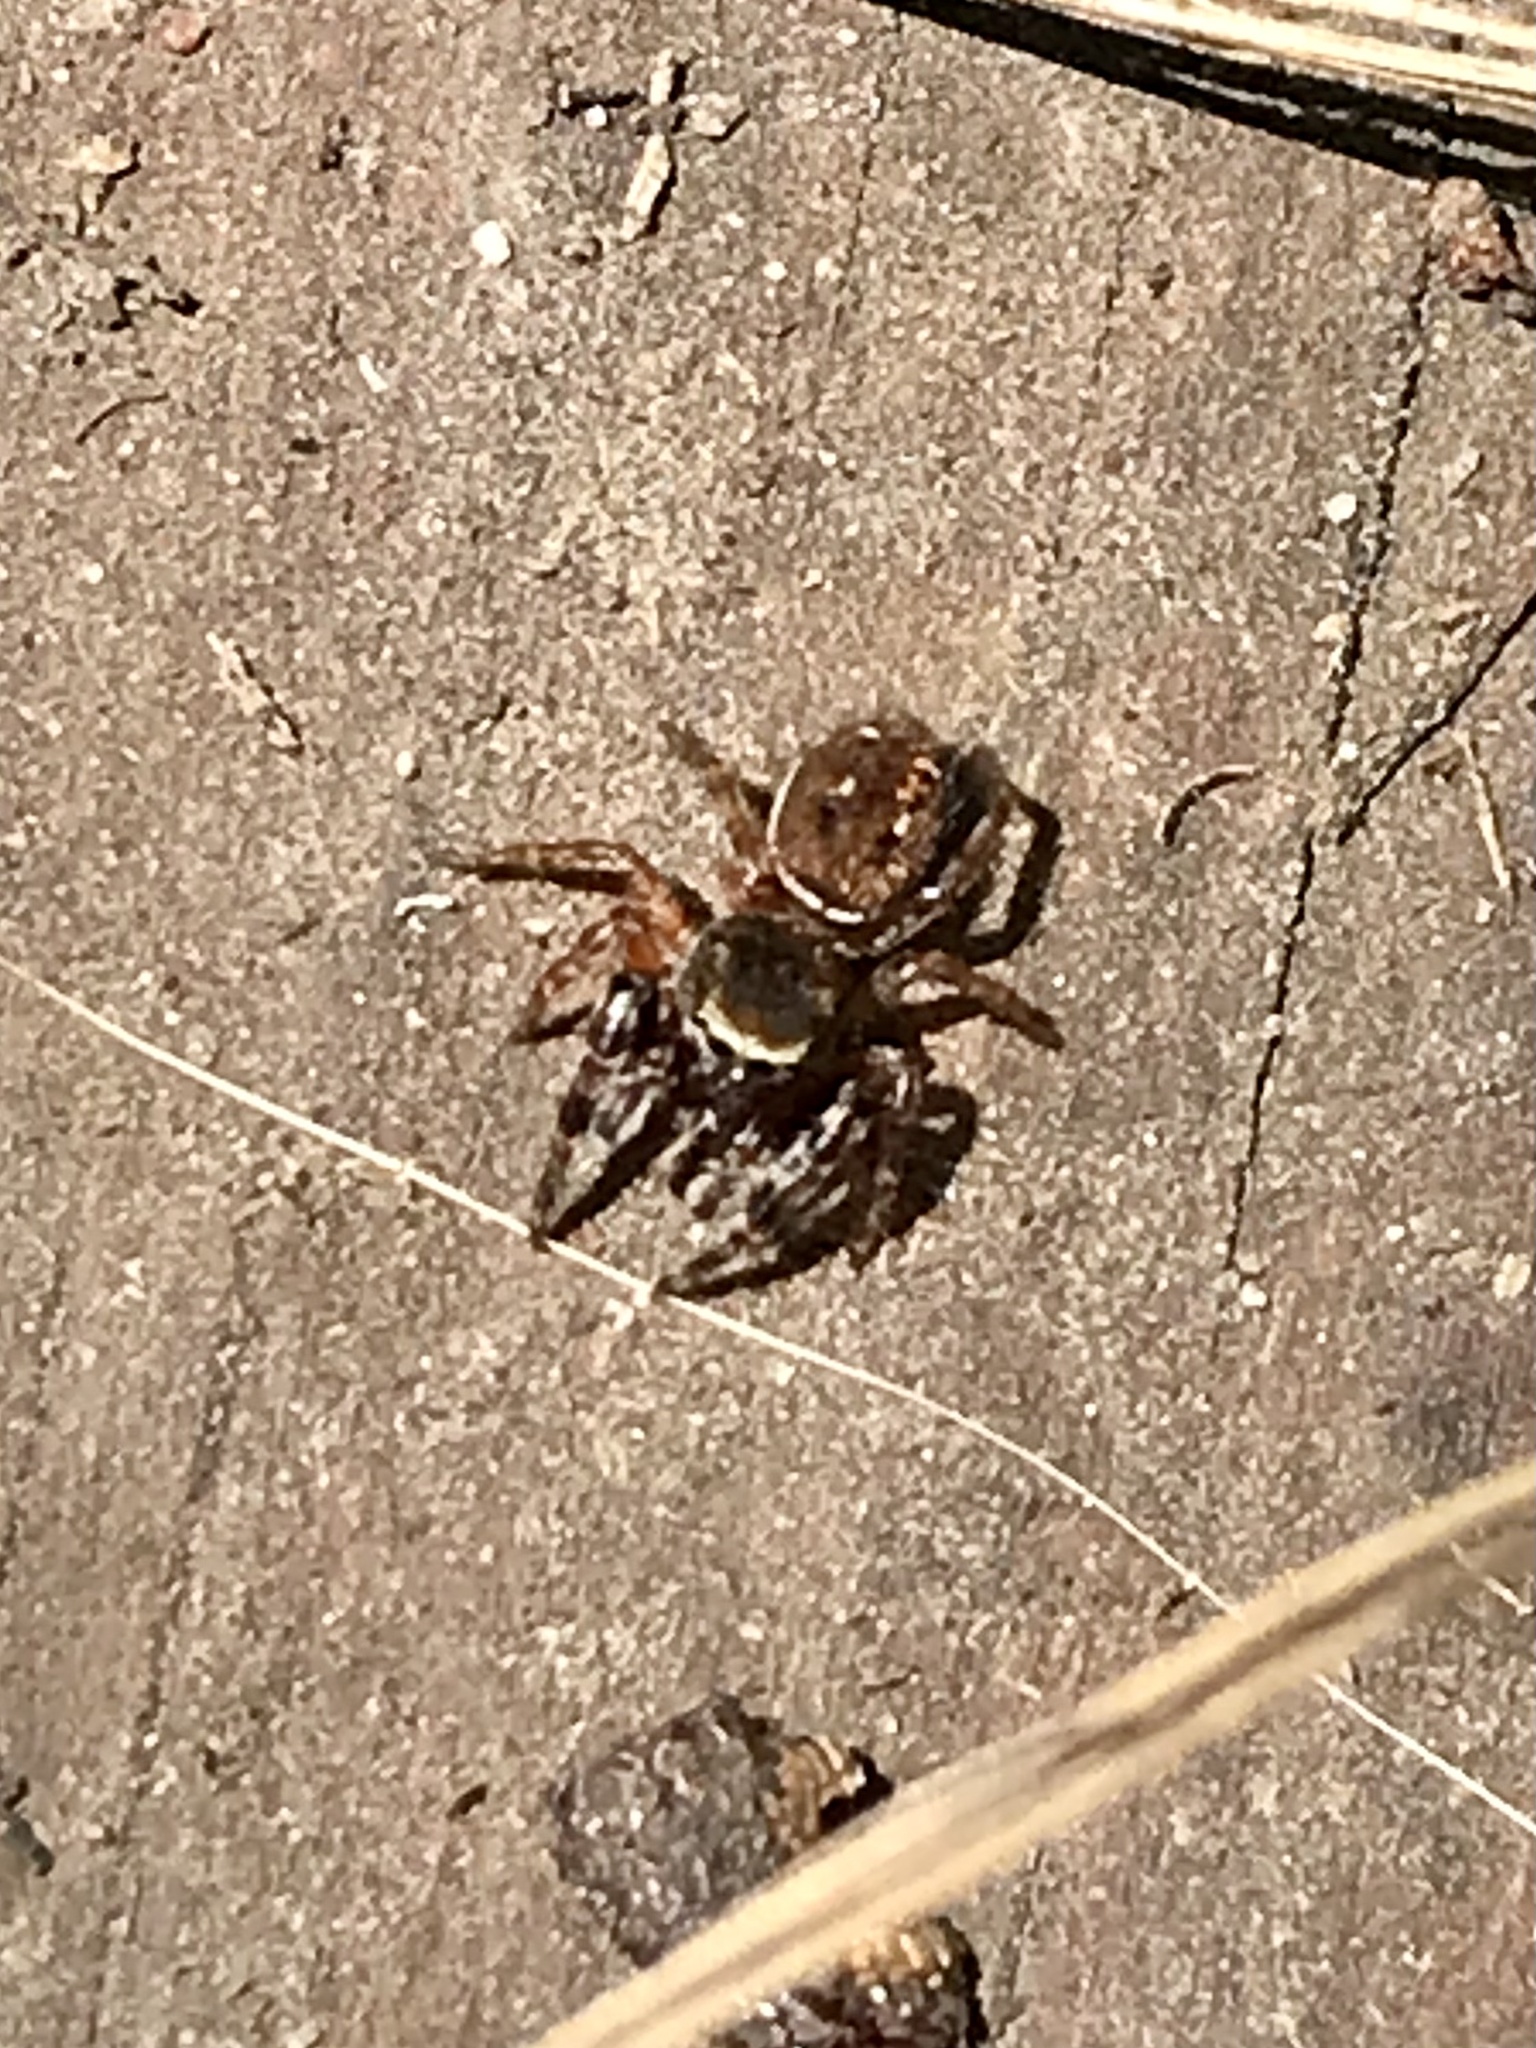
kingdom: Animalia
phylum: Arthropoda
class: Arachnida
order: Araneae
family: Salticidae
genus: Ghelna
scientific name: Ghelna canadensis
